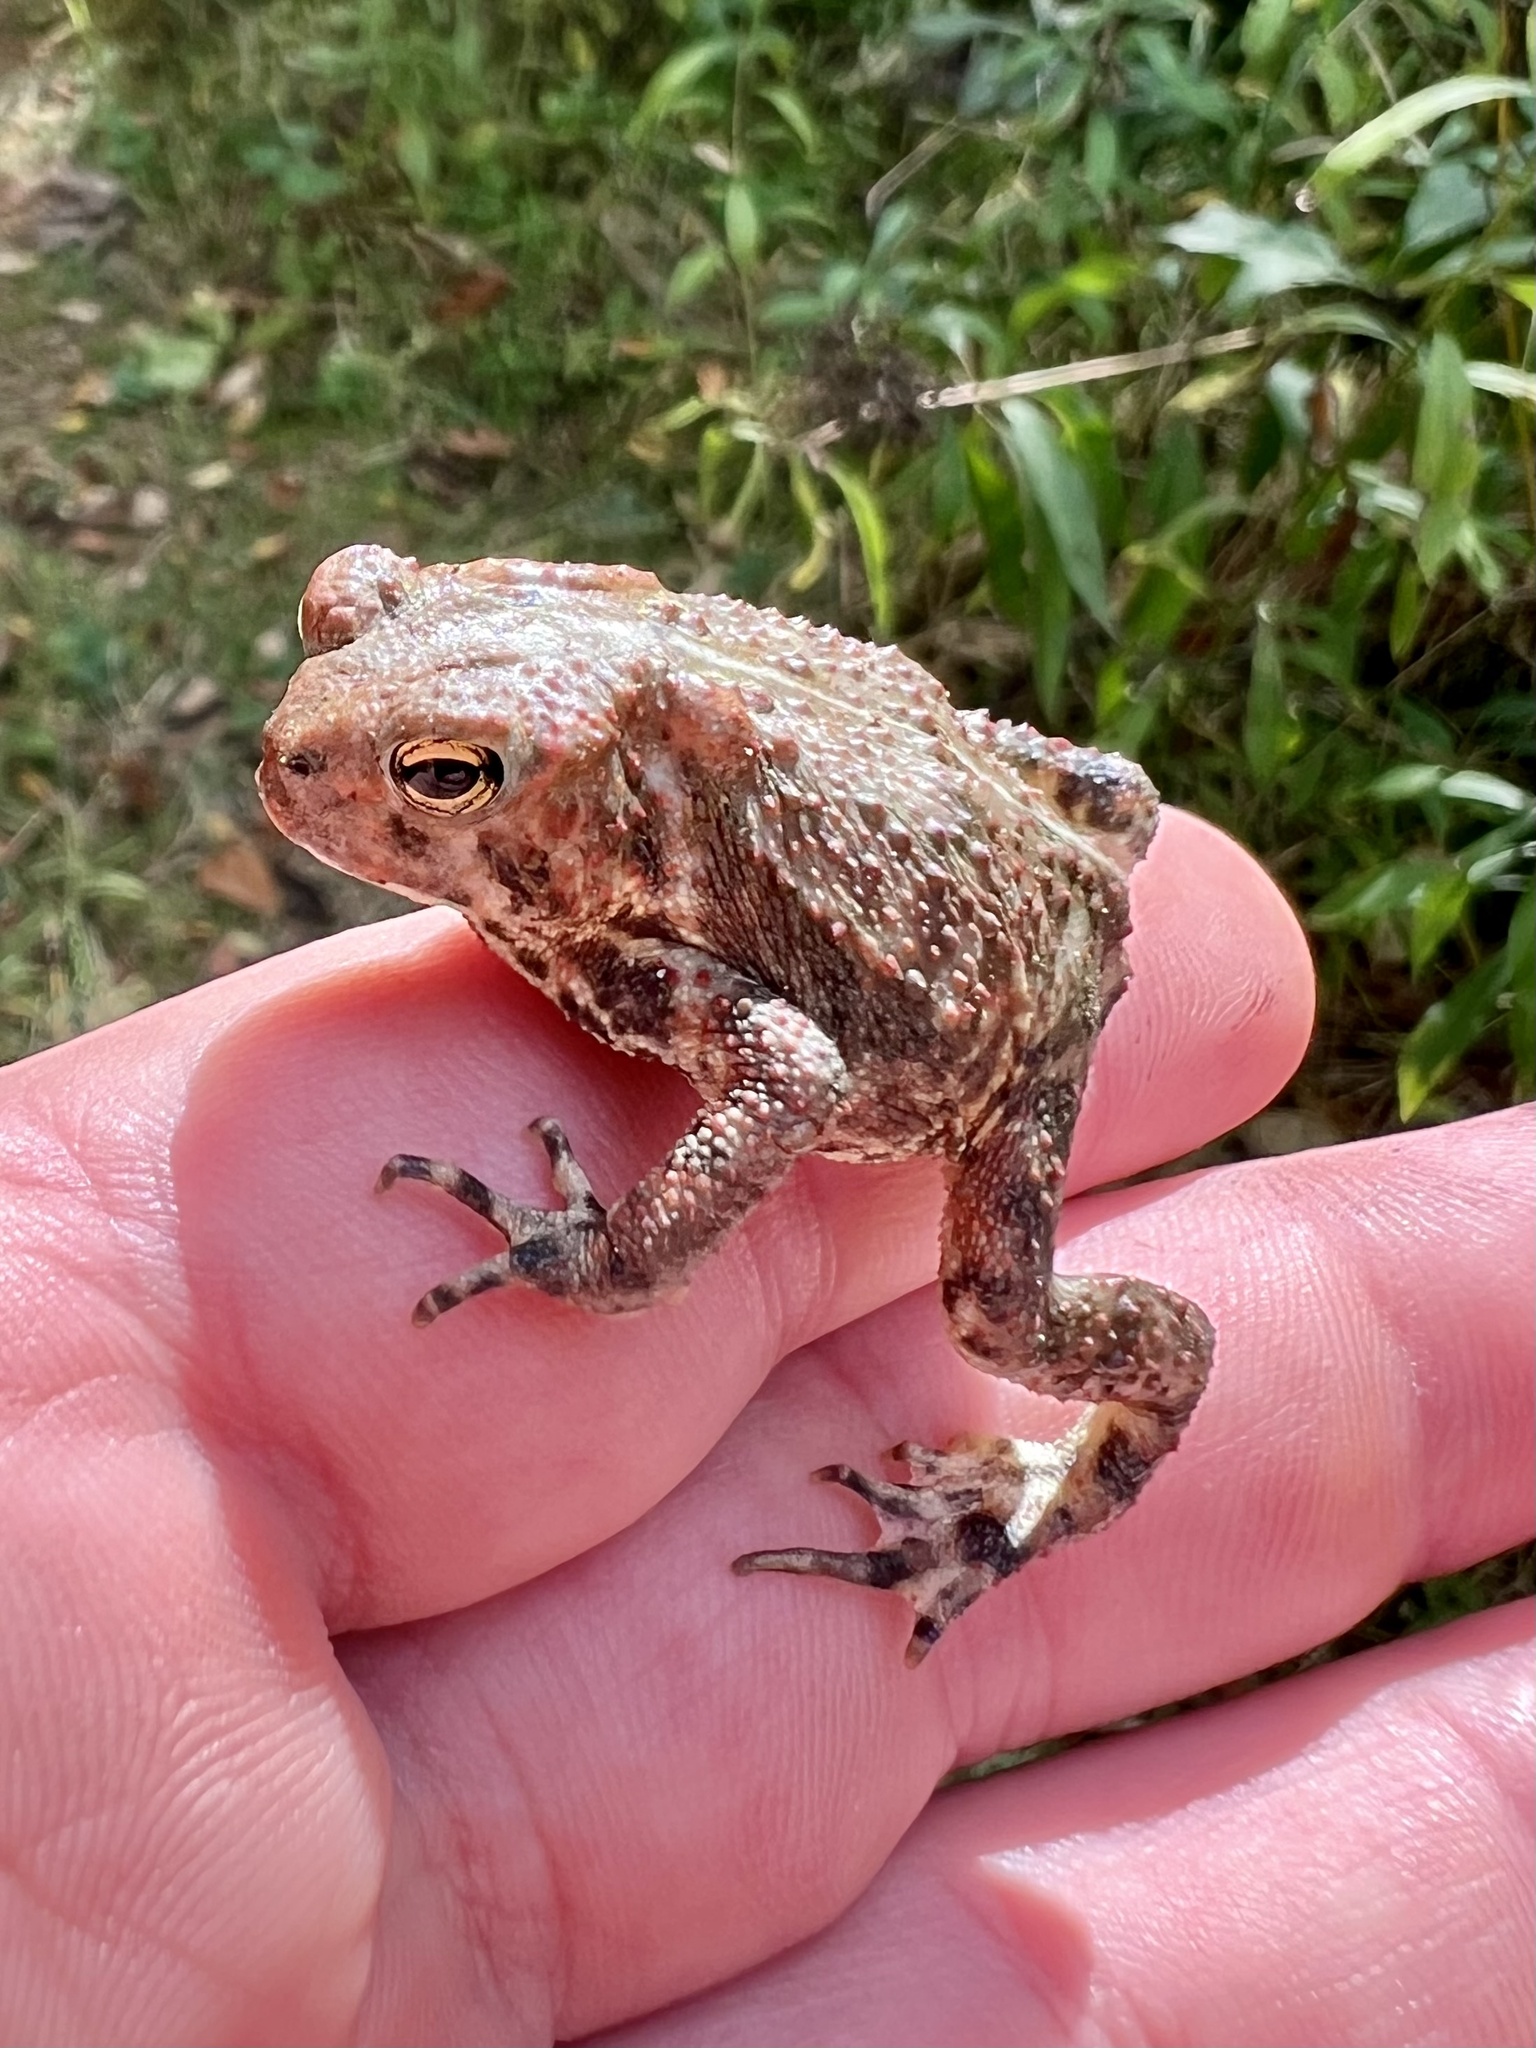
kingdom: Animalia
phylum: Chordata
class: Amphibia
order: Anura
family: Bufonidae
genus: Anaxyrus
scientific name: Anaxyrus americanus
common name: American toad
